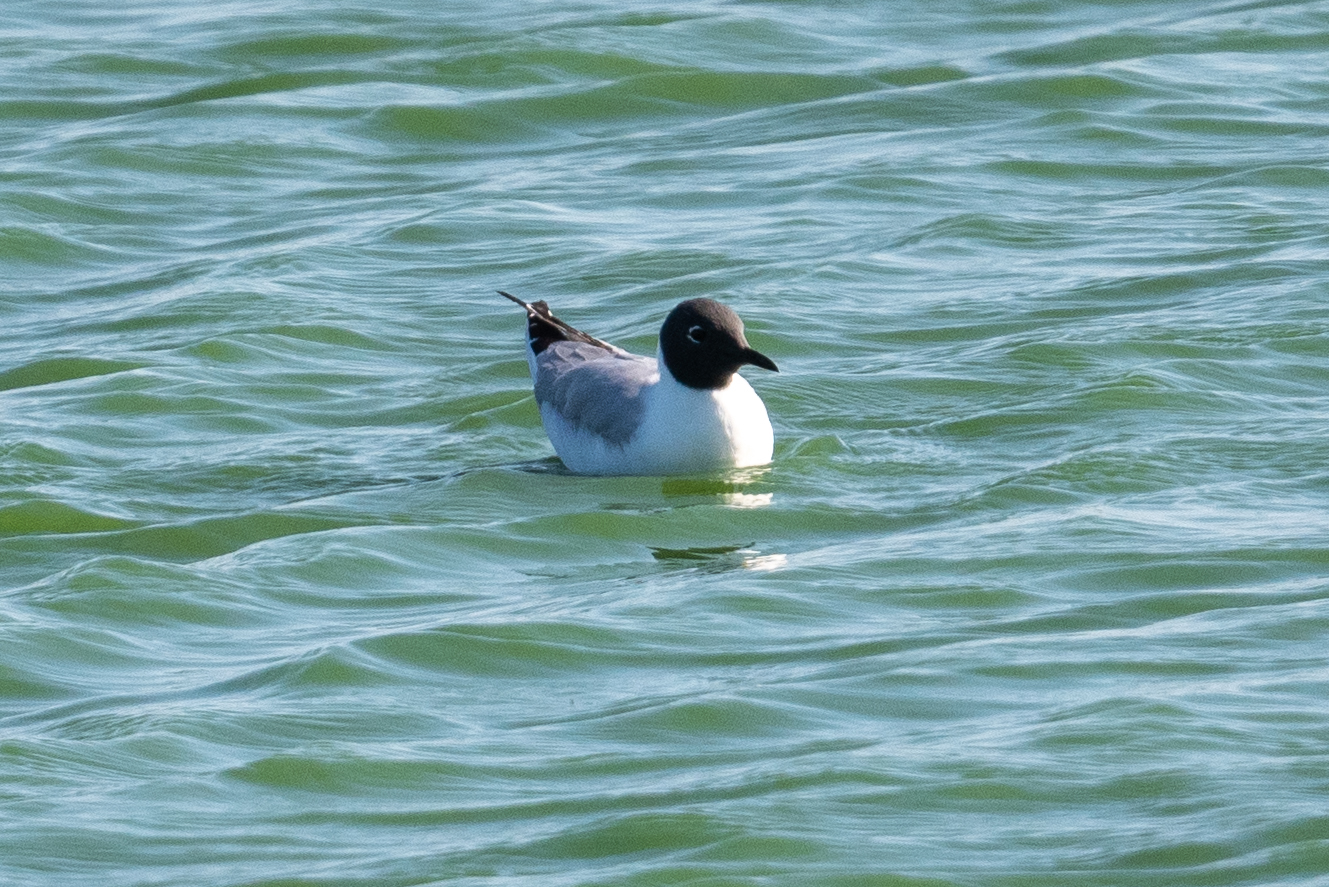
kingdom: Animalia
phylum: Chordata
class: Aves
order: Charadriiformes
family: Laridae
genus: Chroicocephalus
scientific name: Chroicocephalus philadelphia
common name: Bonaparte's gull
